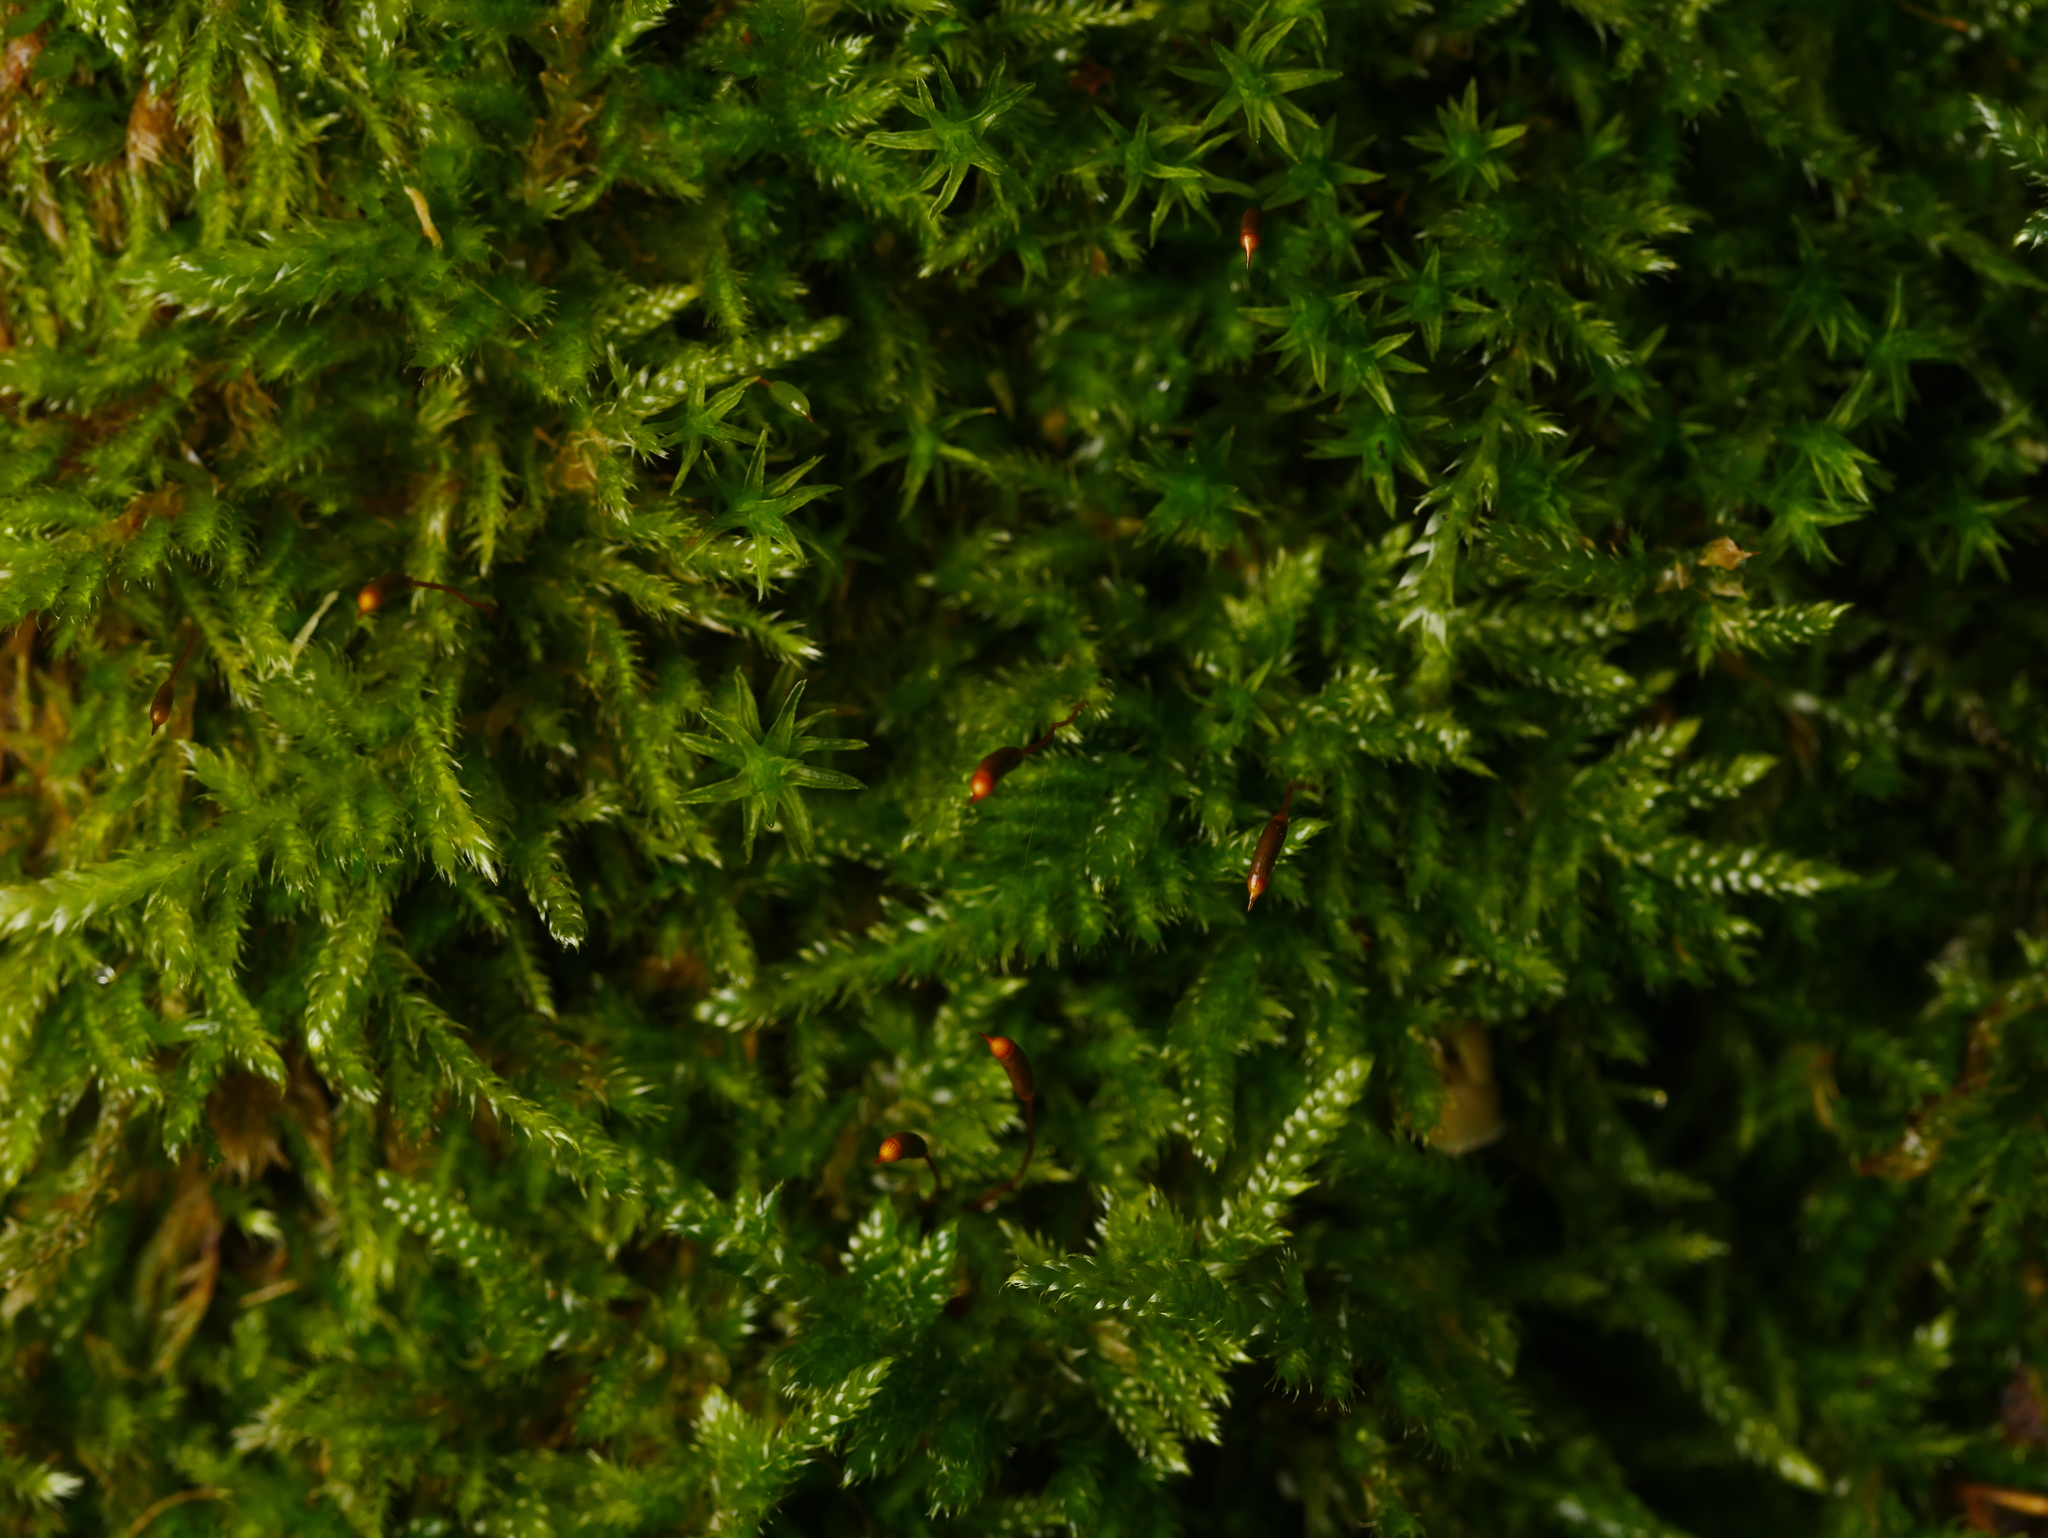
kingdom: Plantae
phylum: Bryophyta
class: Bryopsida
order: Hypnales
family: Hypnaceae
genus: Hypnum
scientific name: Hypnum cupressiforme
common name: Cypress-leaved plait-moss
